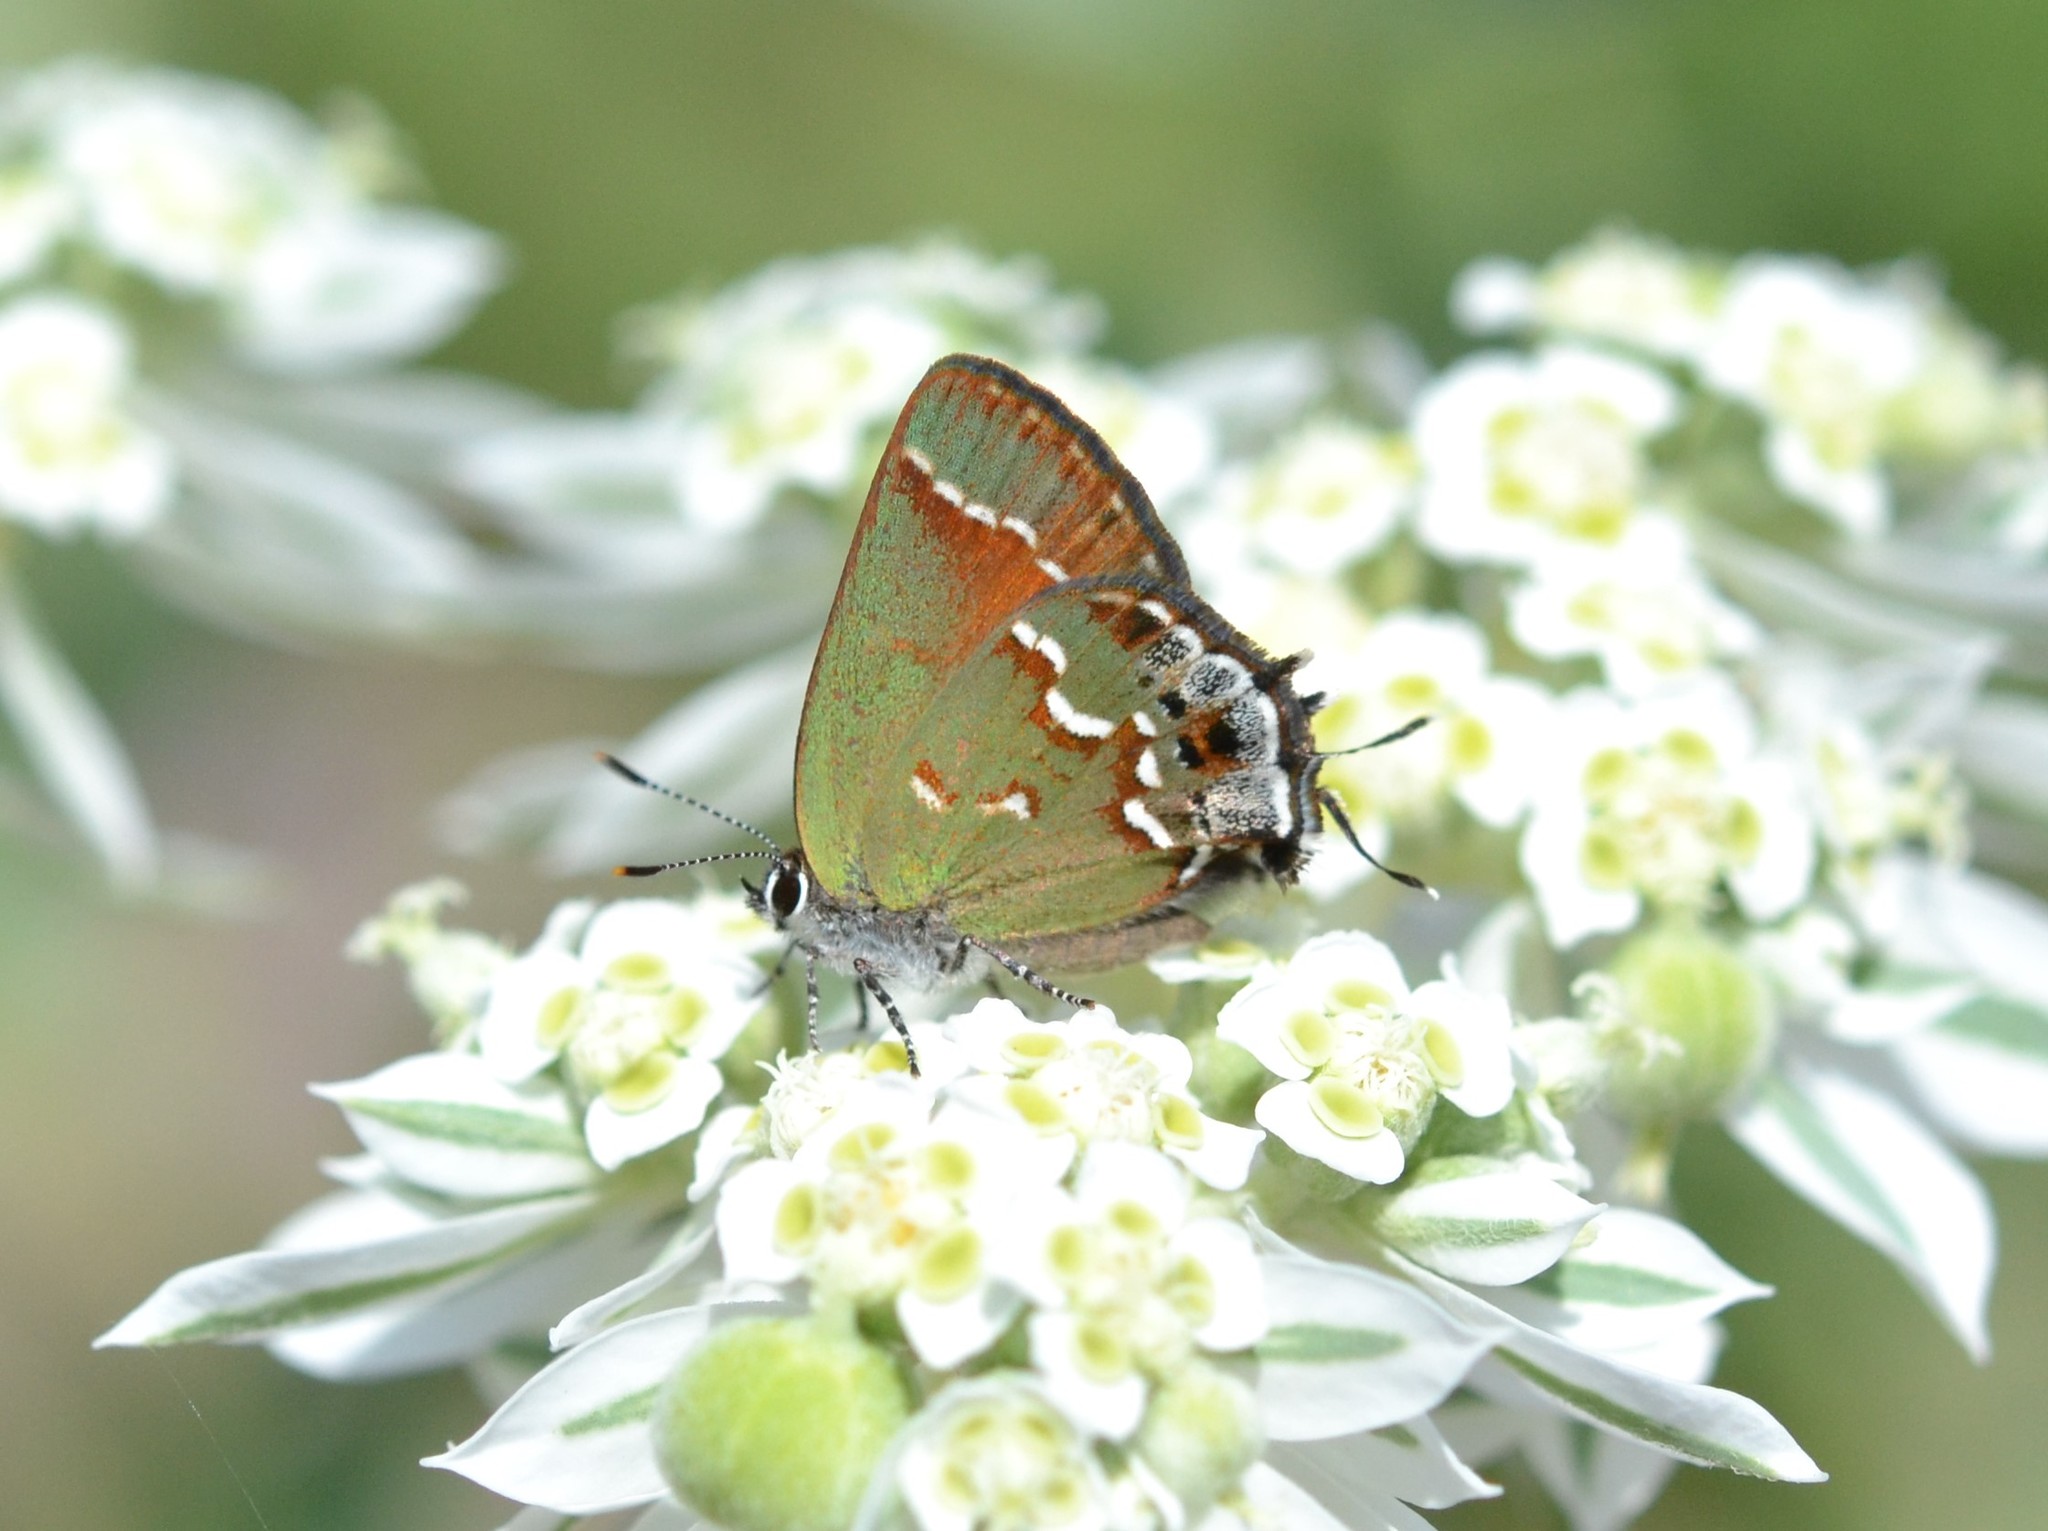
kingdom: Animalia
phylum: Arthropoda
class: Insecta
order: Lepidoptera
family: Lycaenidae
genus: Mitoura
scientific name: Mitoura gryneus
